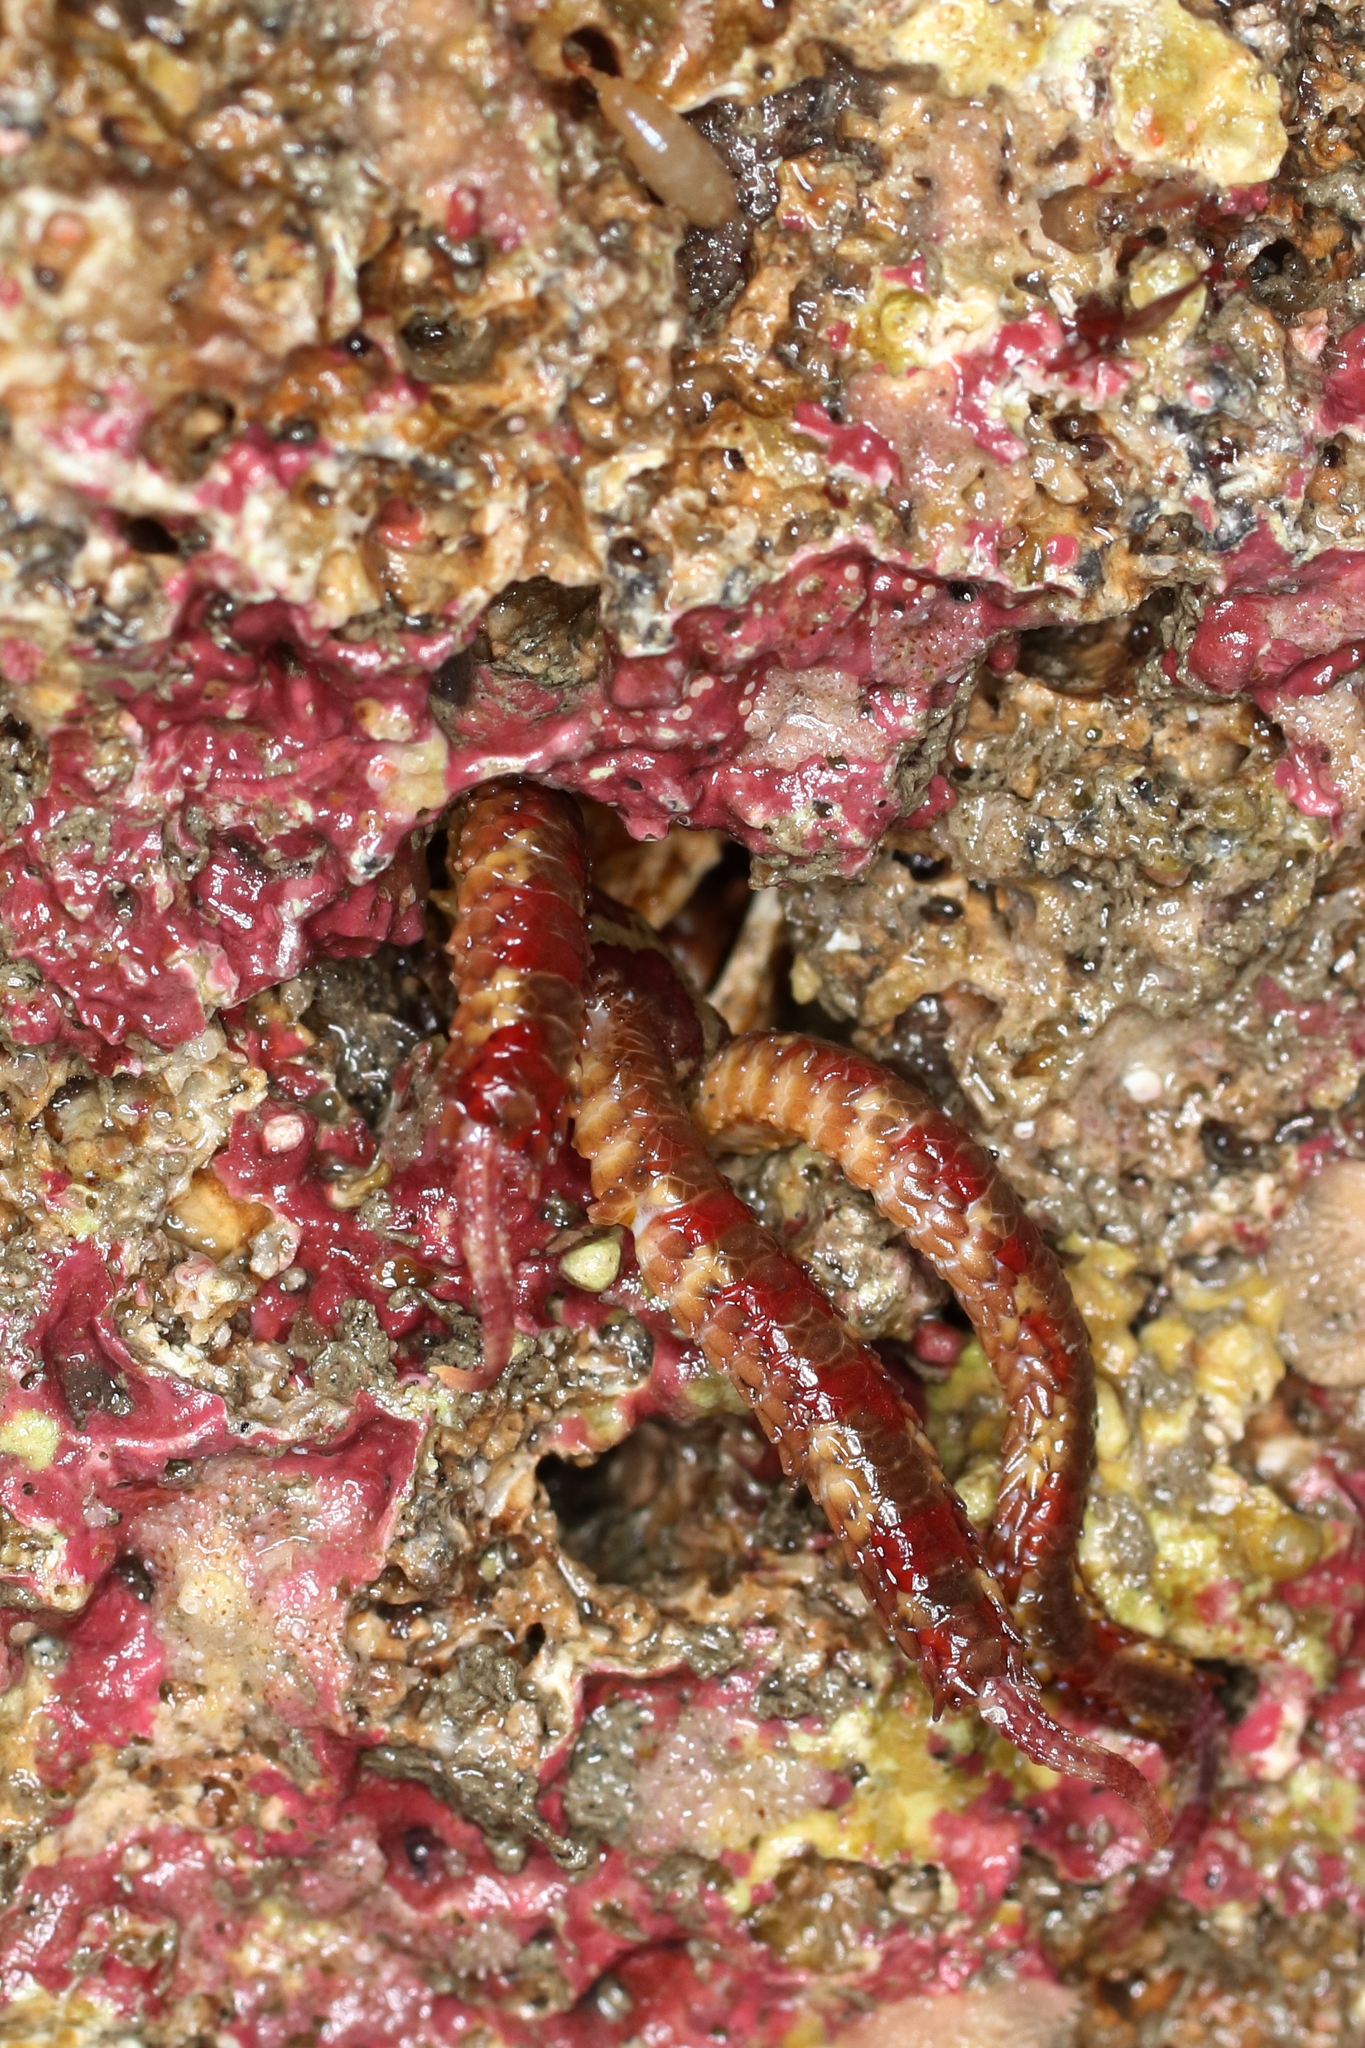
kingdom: Animalia
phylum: Echinodermata
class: Ophiuroidea
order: Amphilepidida
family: Ophiopholidae
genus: Ophiopholis
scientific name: Ophiopholis kennerlyi
